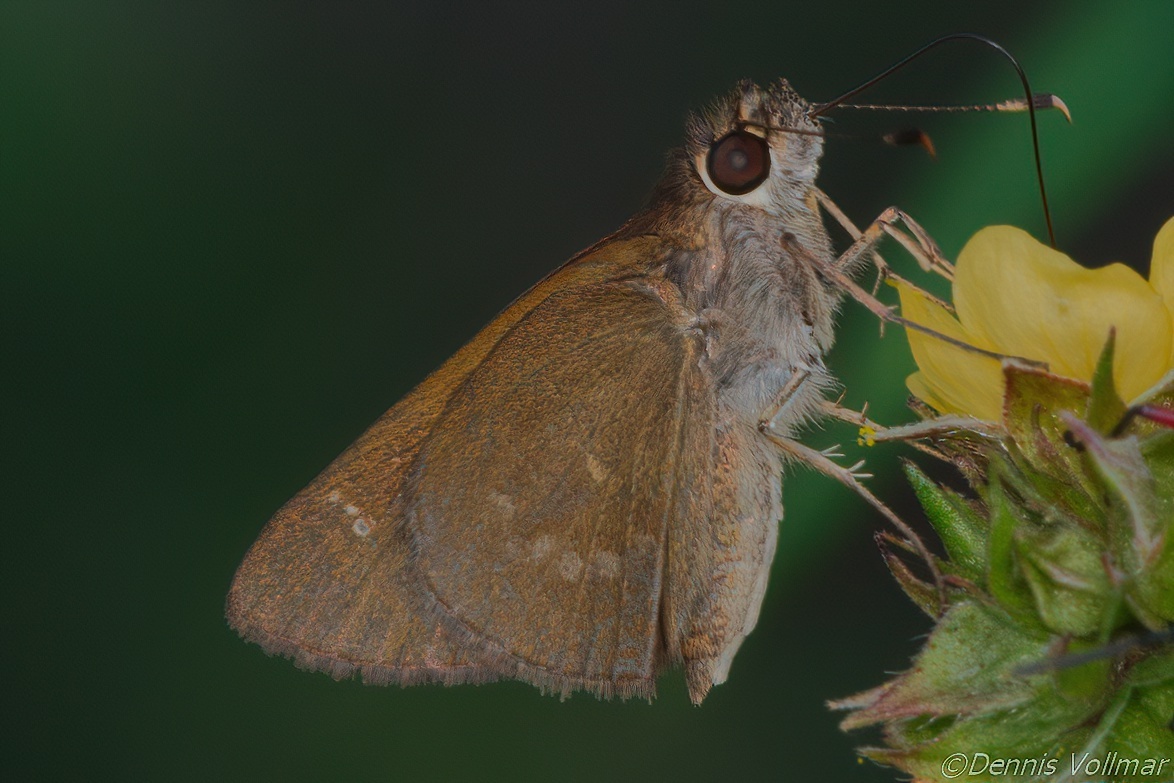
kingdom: Animalia
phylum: Arthropoda
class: Insecta
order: Lepidoptera
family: Hesperiidae
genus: Cymaenes
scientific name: Cymaenes tripunctus
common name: Dingy dotted skipper
